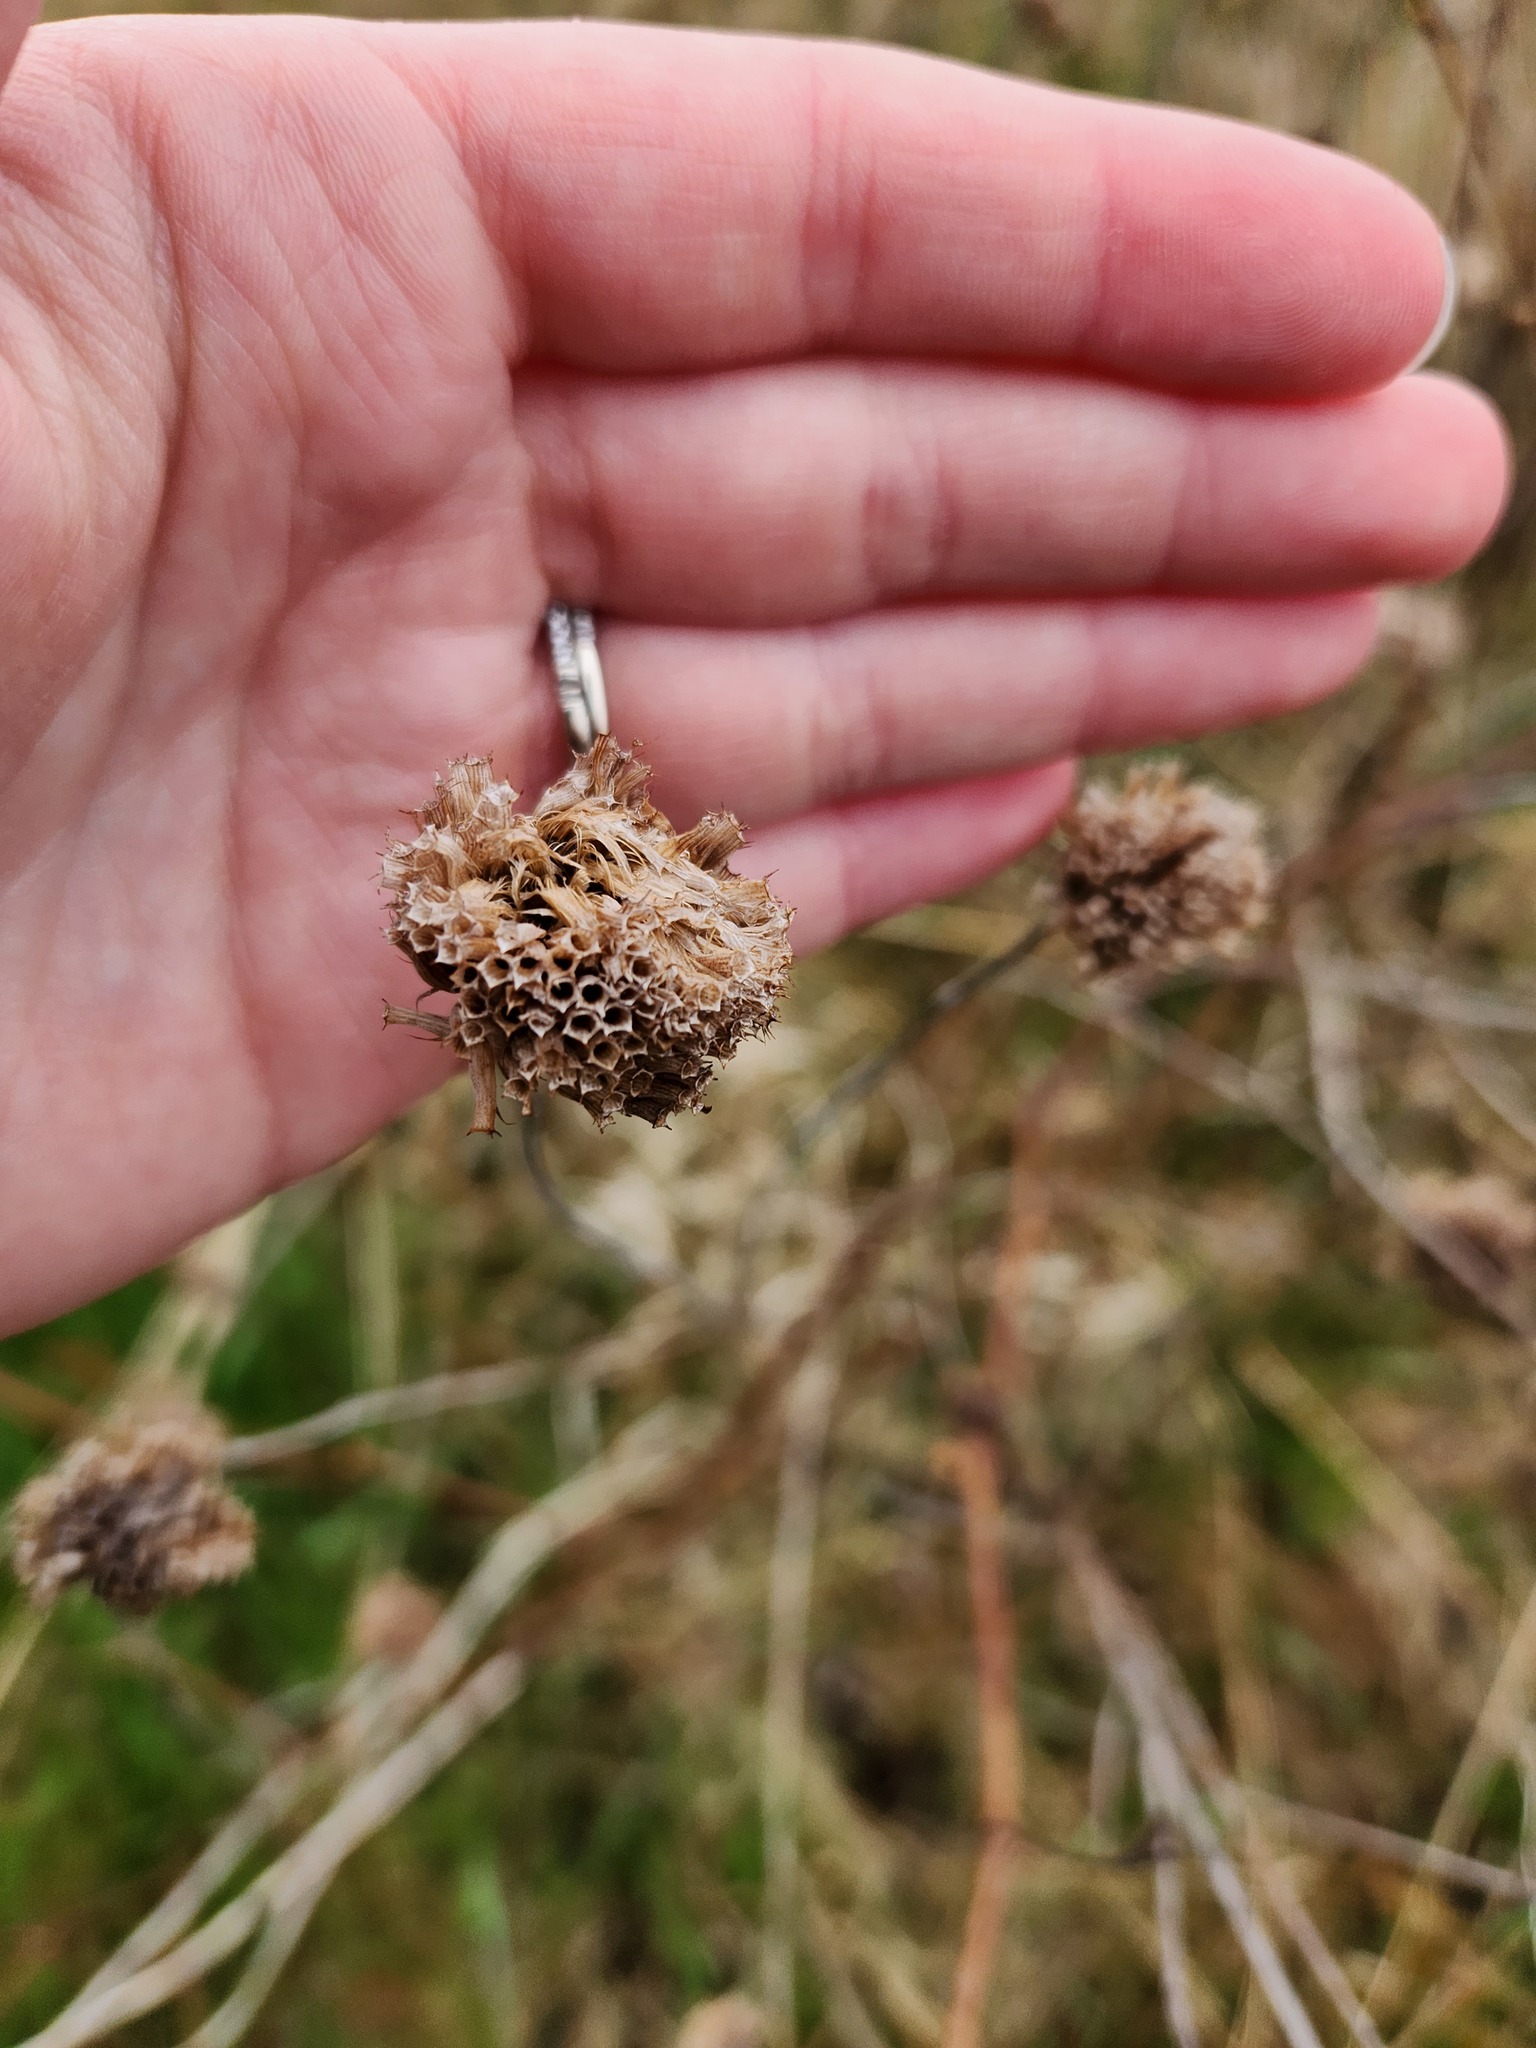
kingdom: Plantae
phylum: Tracheophyta
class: Magnoliopsida
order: Lamiales
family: Lamiaceae
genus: Monarda
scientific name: Monarda fistulosa
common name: Purple beebalm
